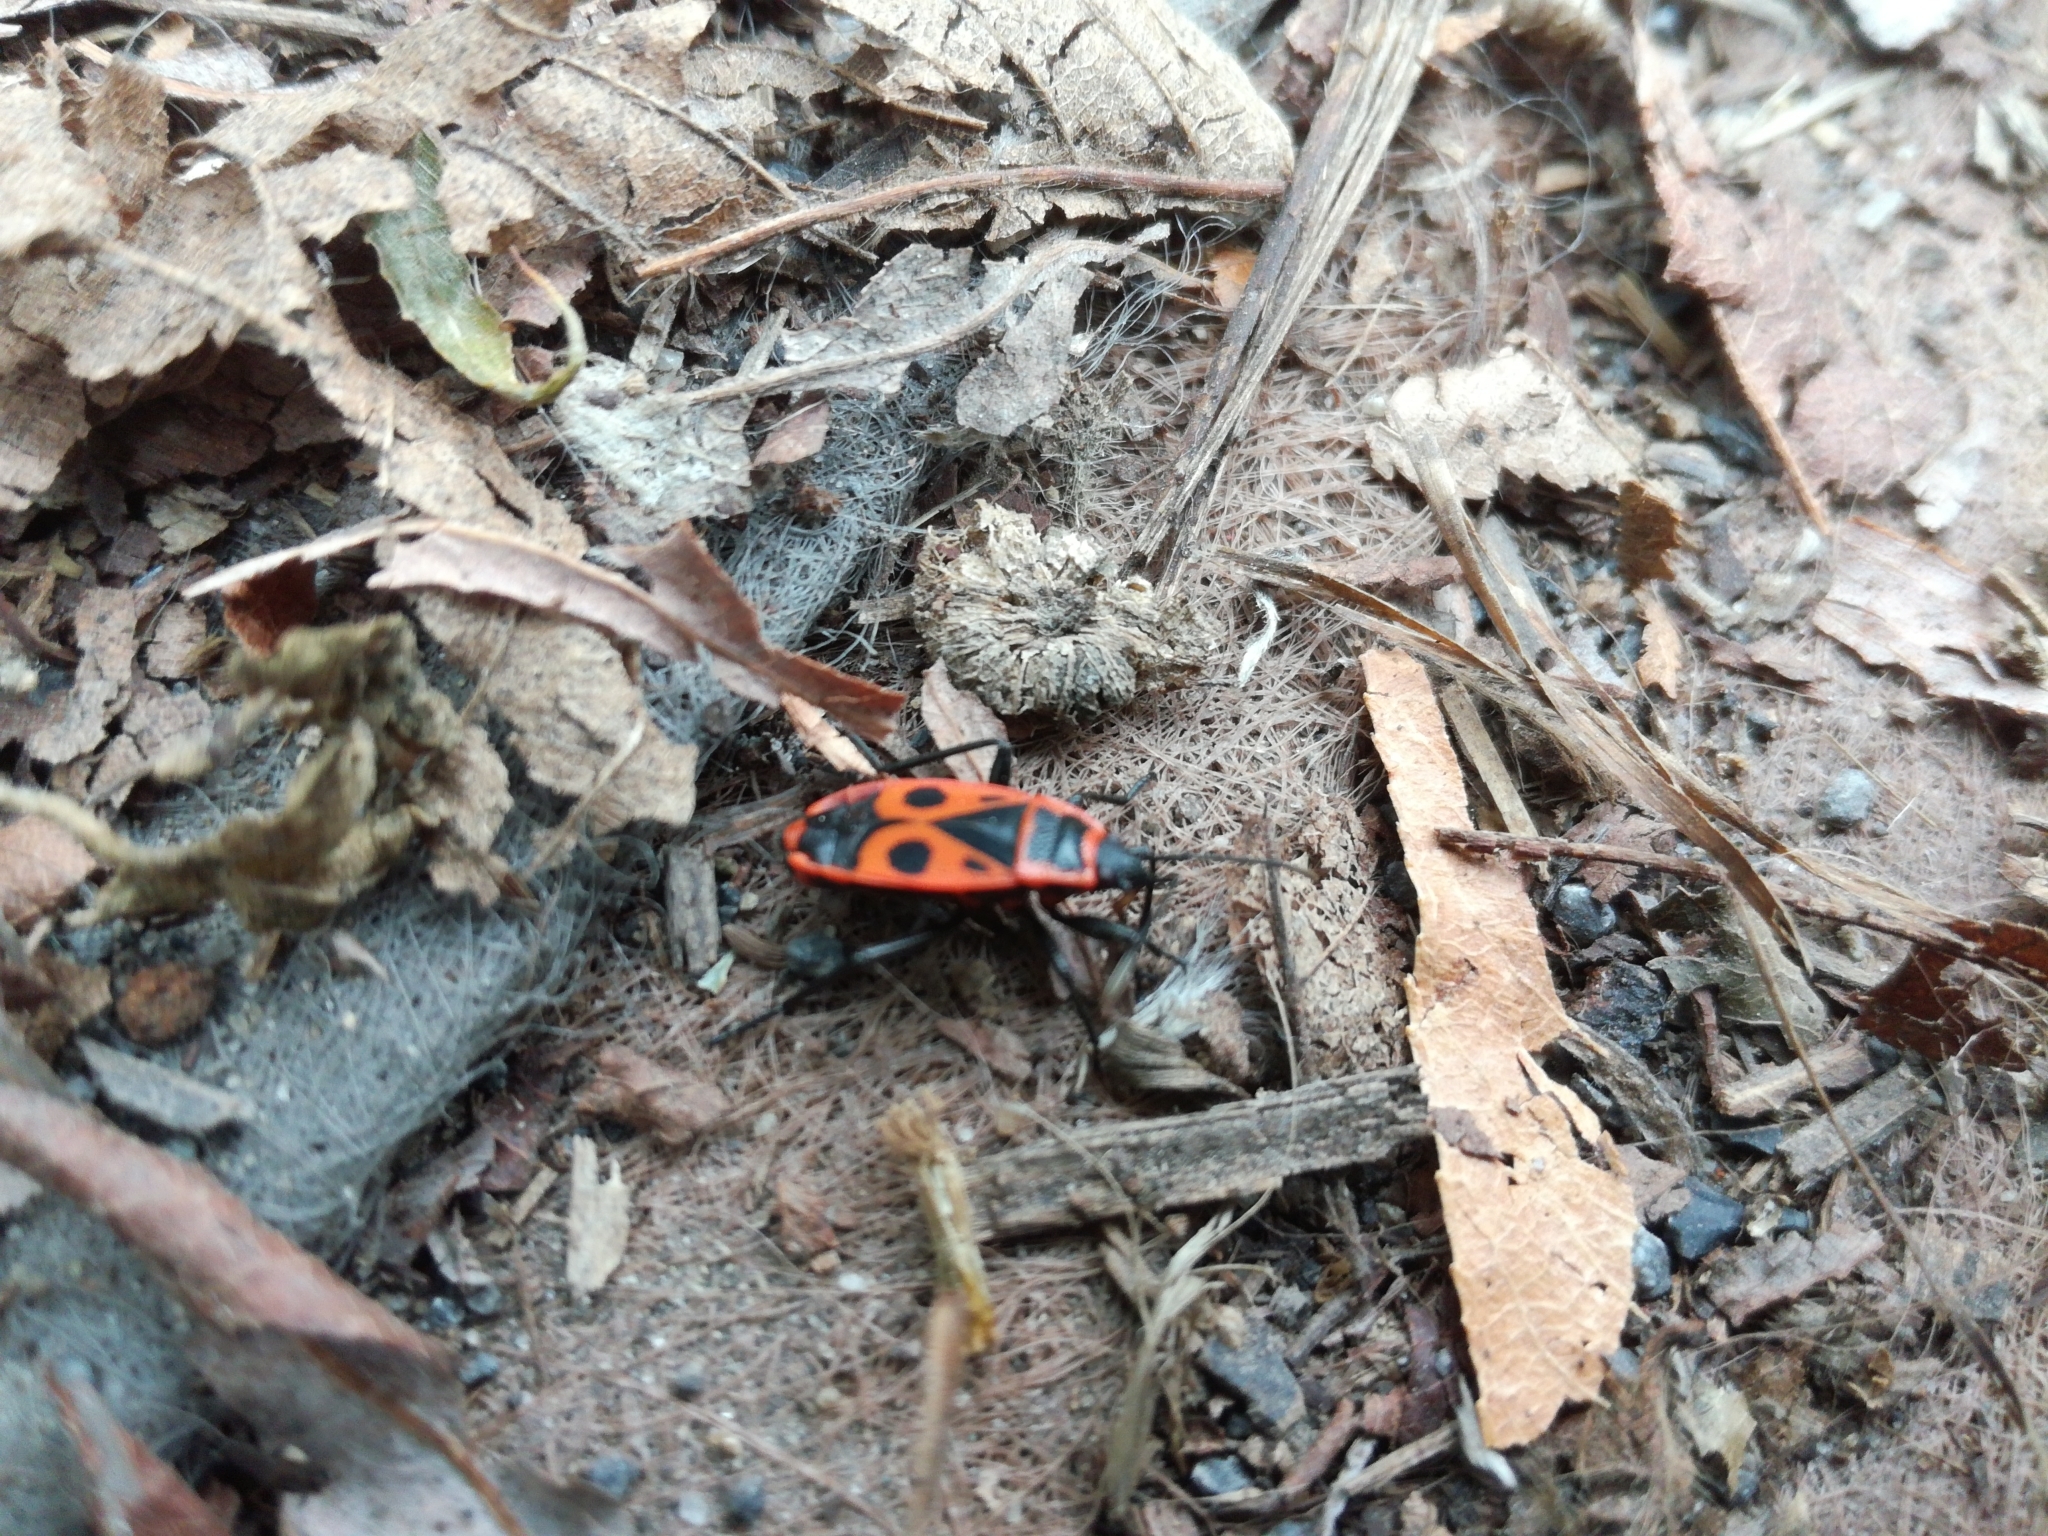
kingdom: Animalia
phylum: Arthropoda
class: Insecta
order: Hemiptera
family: Pyrrhocoridae
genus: Pyrrhocoris
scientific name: Pyrrhocoris apterus
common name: Firebug
